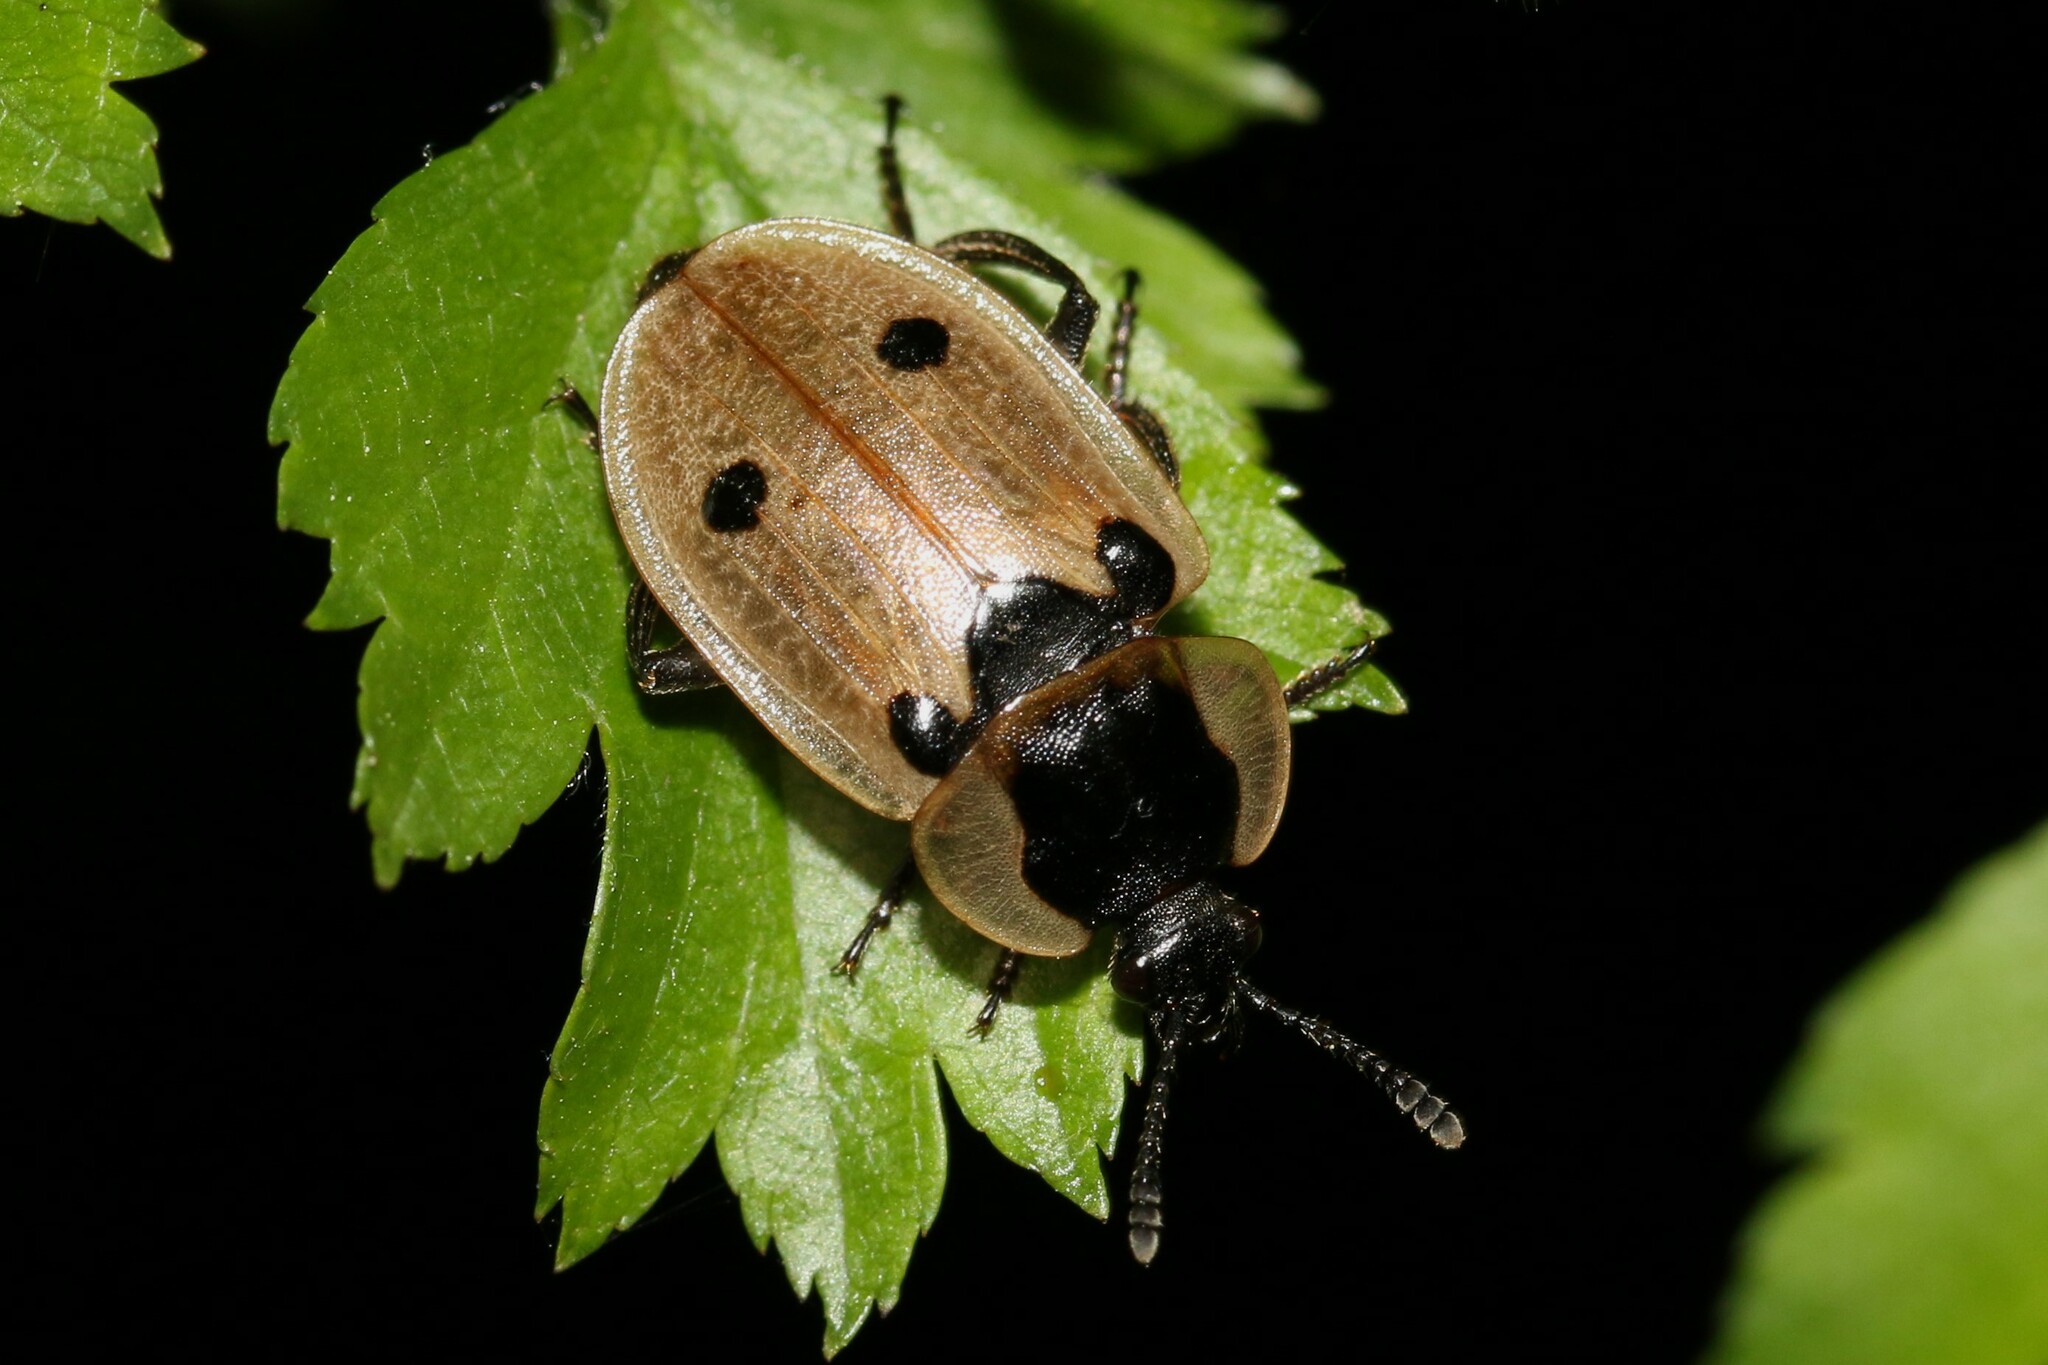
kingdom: Animalia
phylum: Arthropoda
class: Insecta
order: Coleoptera
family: Staphylinidae
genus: Dendroxena
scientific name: Dendroxena quadrimaculata
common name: Carrion beetle
